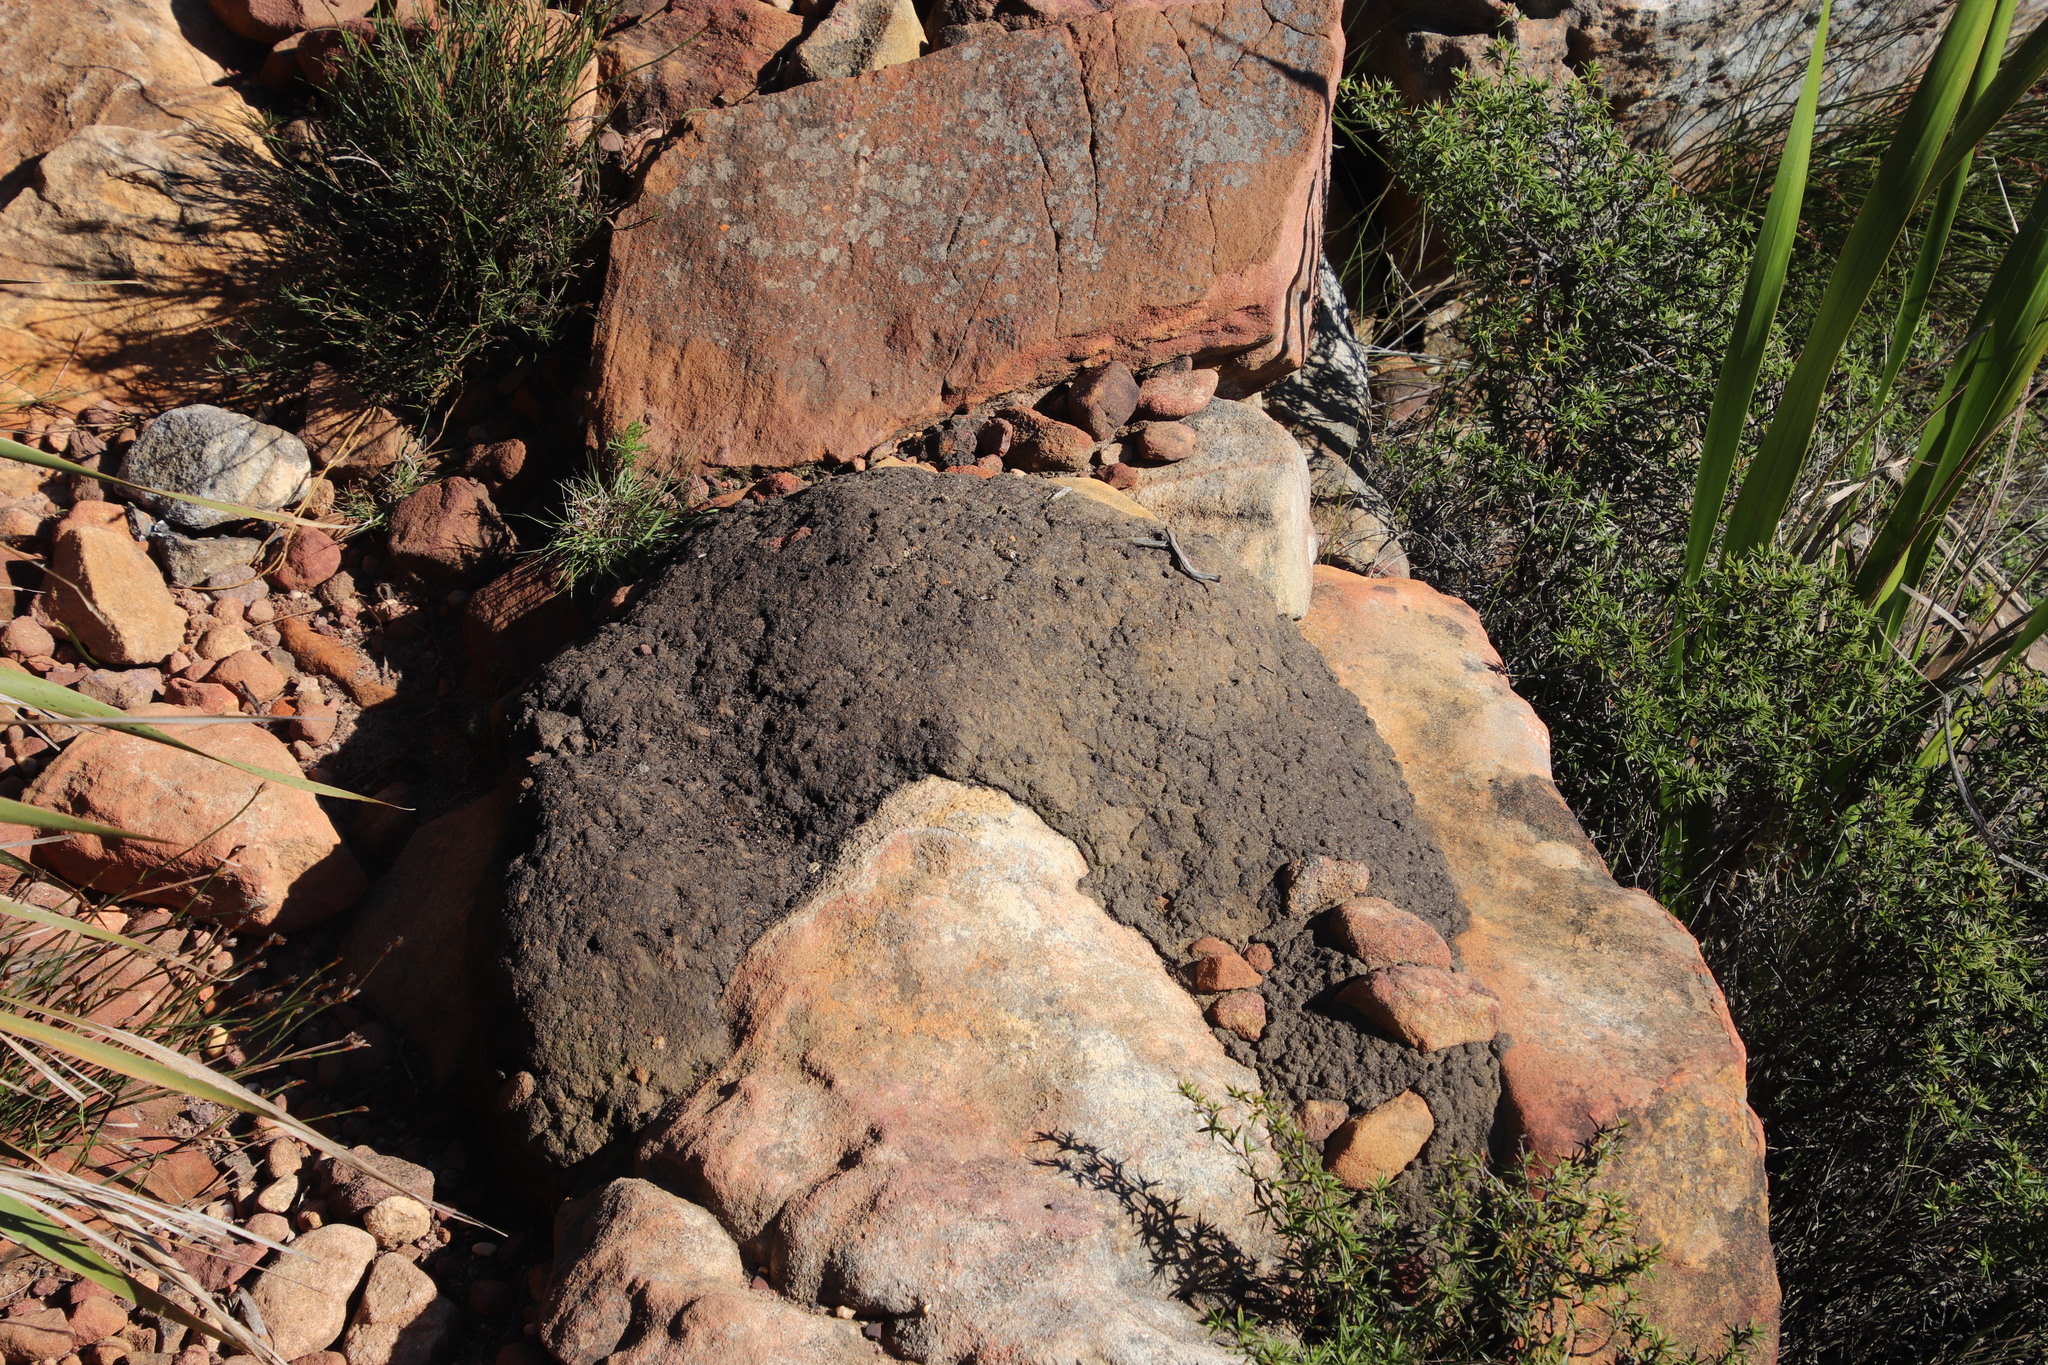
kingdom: Animalia
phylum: Arthropoda
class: Insecta
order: Blattodea
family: Termitidae
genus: Amitermes
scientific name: Amitermes hastatus
